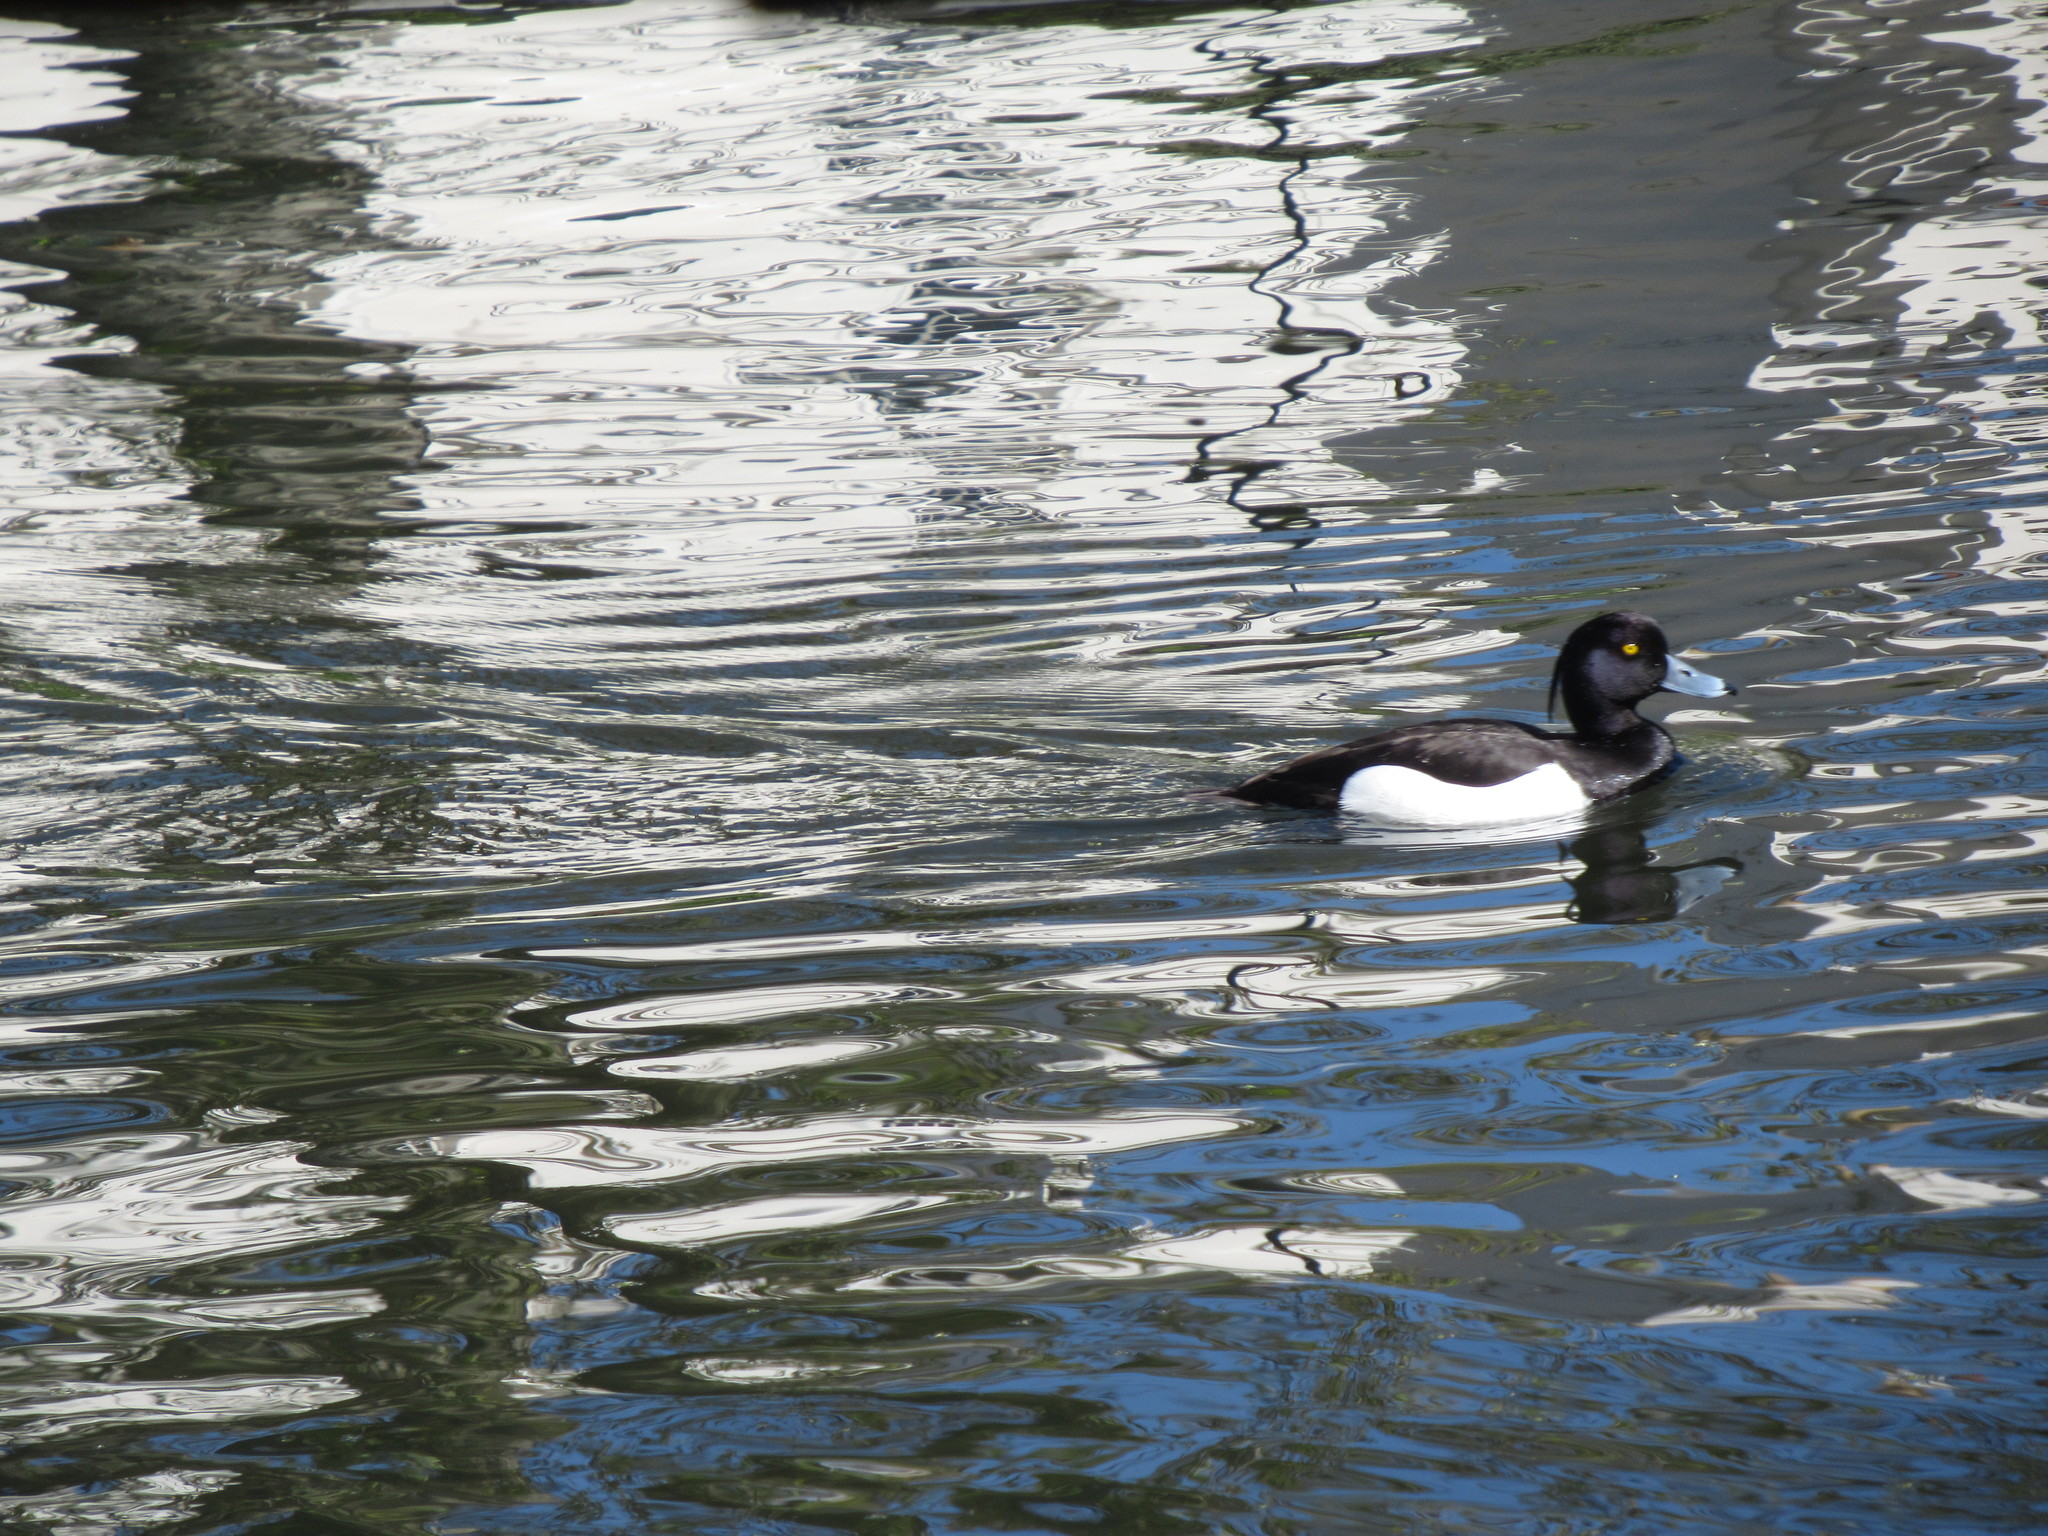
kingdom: Animalia
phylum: Chordata
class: Aves
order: Anseriformes
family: Anatidae
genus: Aythya
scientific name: Aythya fuligula
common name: Tufted duck
